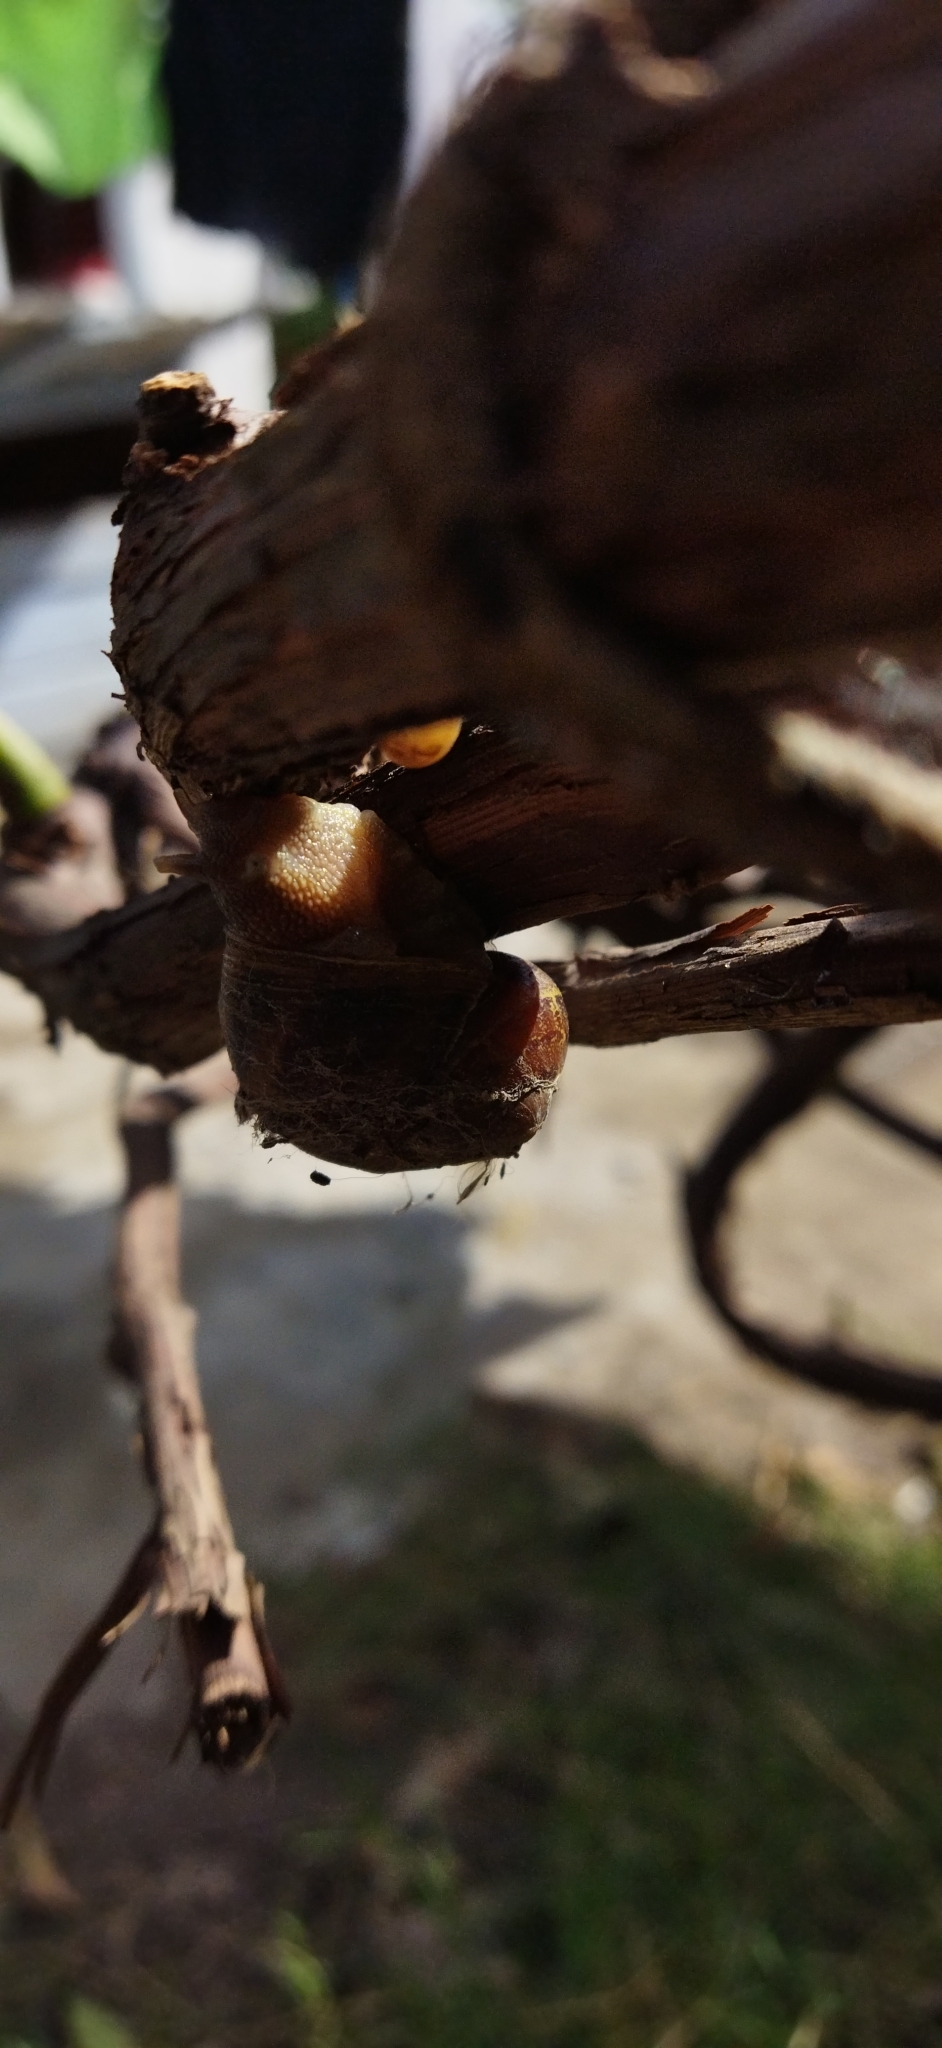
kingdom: Animalia
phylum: Mollusca
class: Gastropoda
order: Stylommatophora
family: Helicidae
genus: Cornu
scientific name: Cornu aspersum
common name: Brown garden snail
